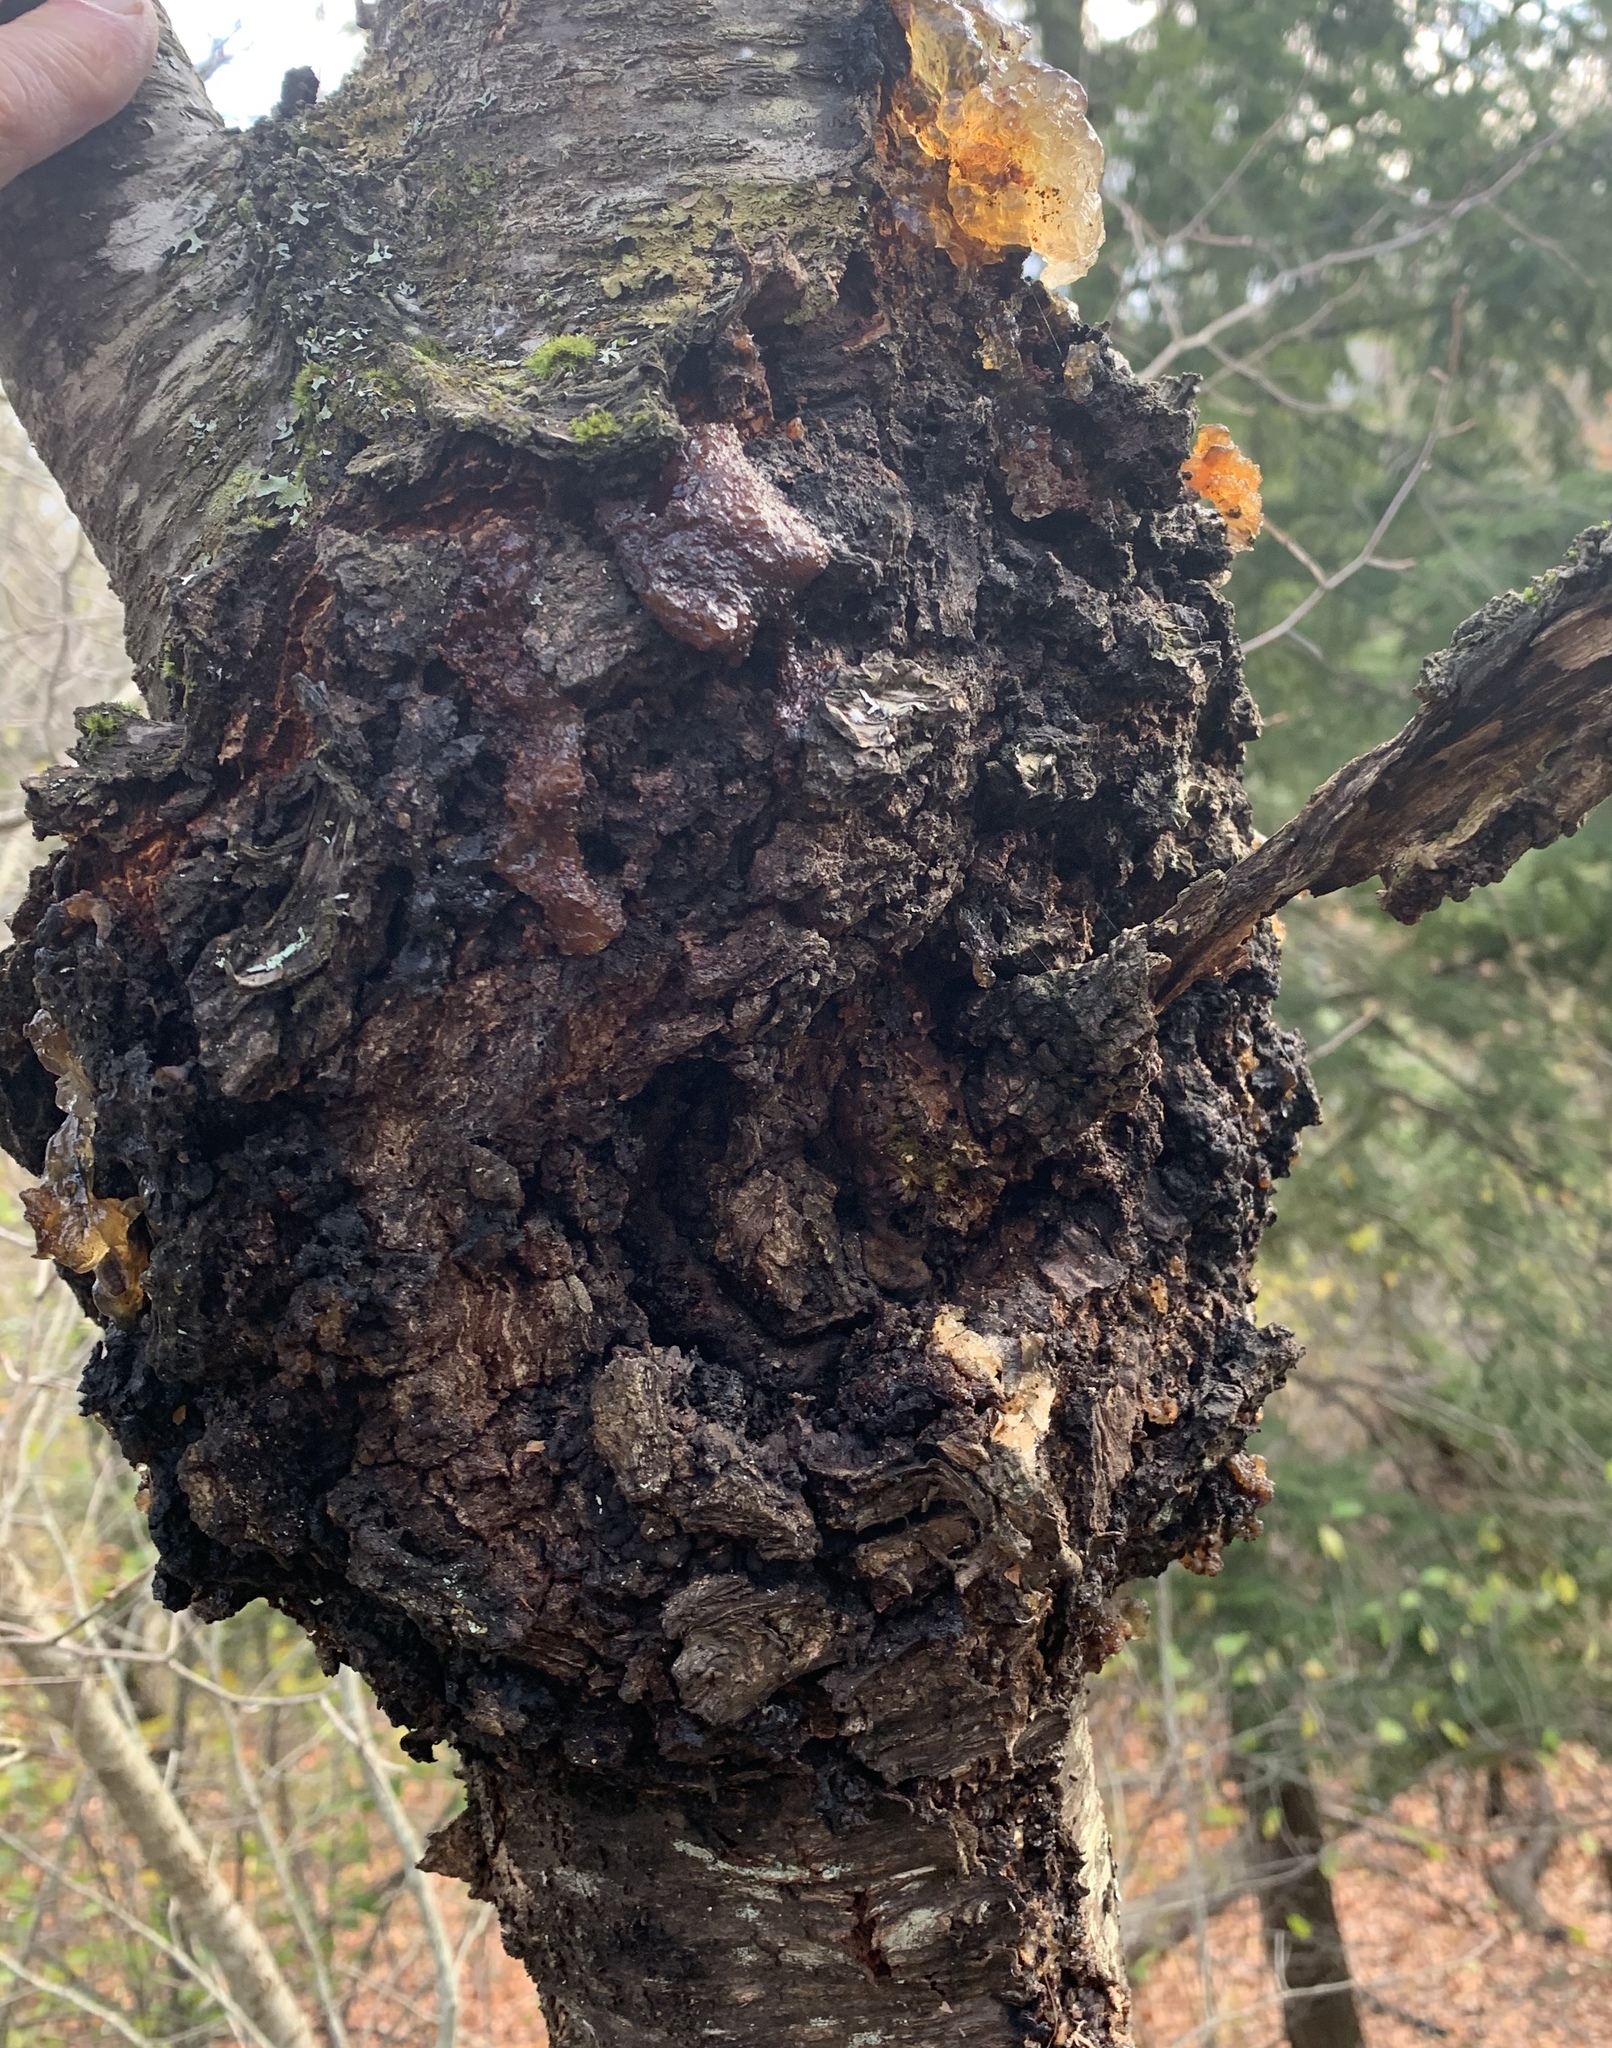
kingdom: Fungi
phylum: Ascomycota
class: Dothideomycetes
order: Venturiales
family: Venturiaceae
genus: Apiosporina
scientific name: Apiosporina morbosa
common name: Black knot
